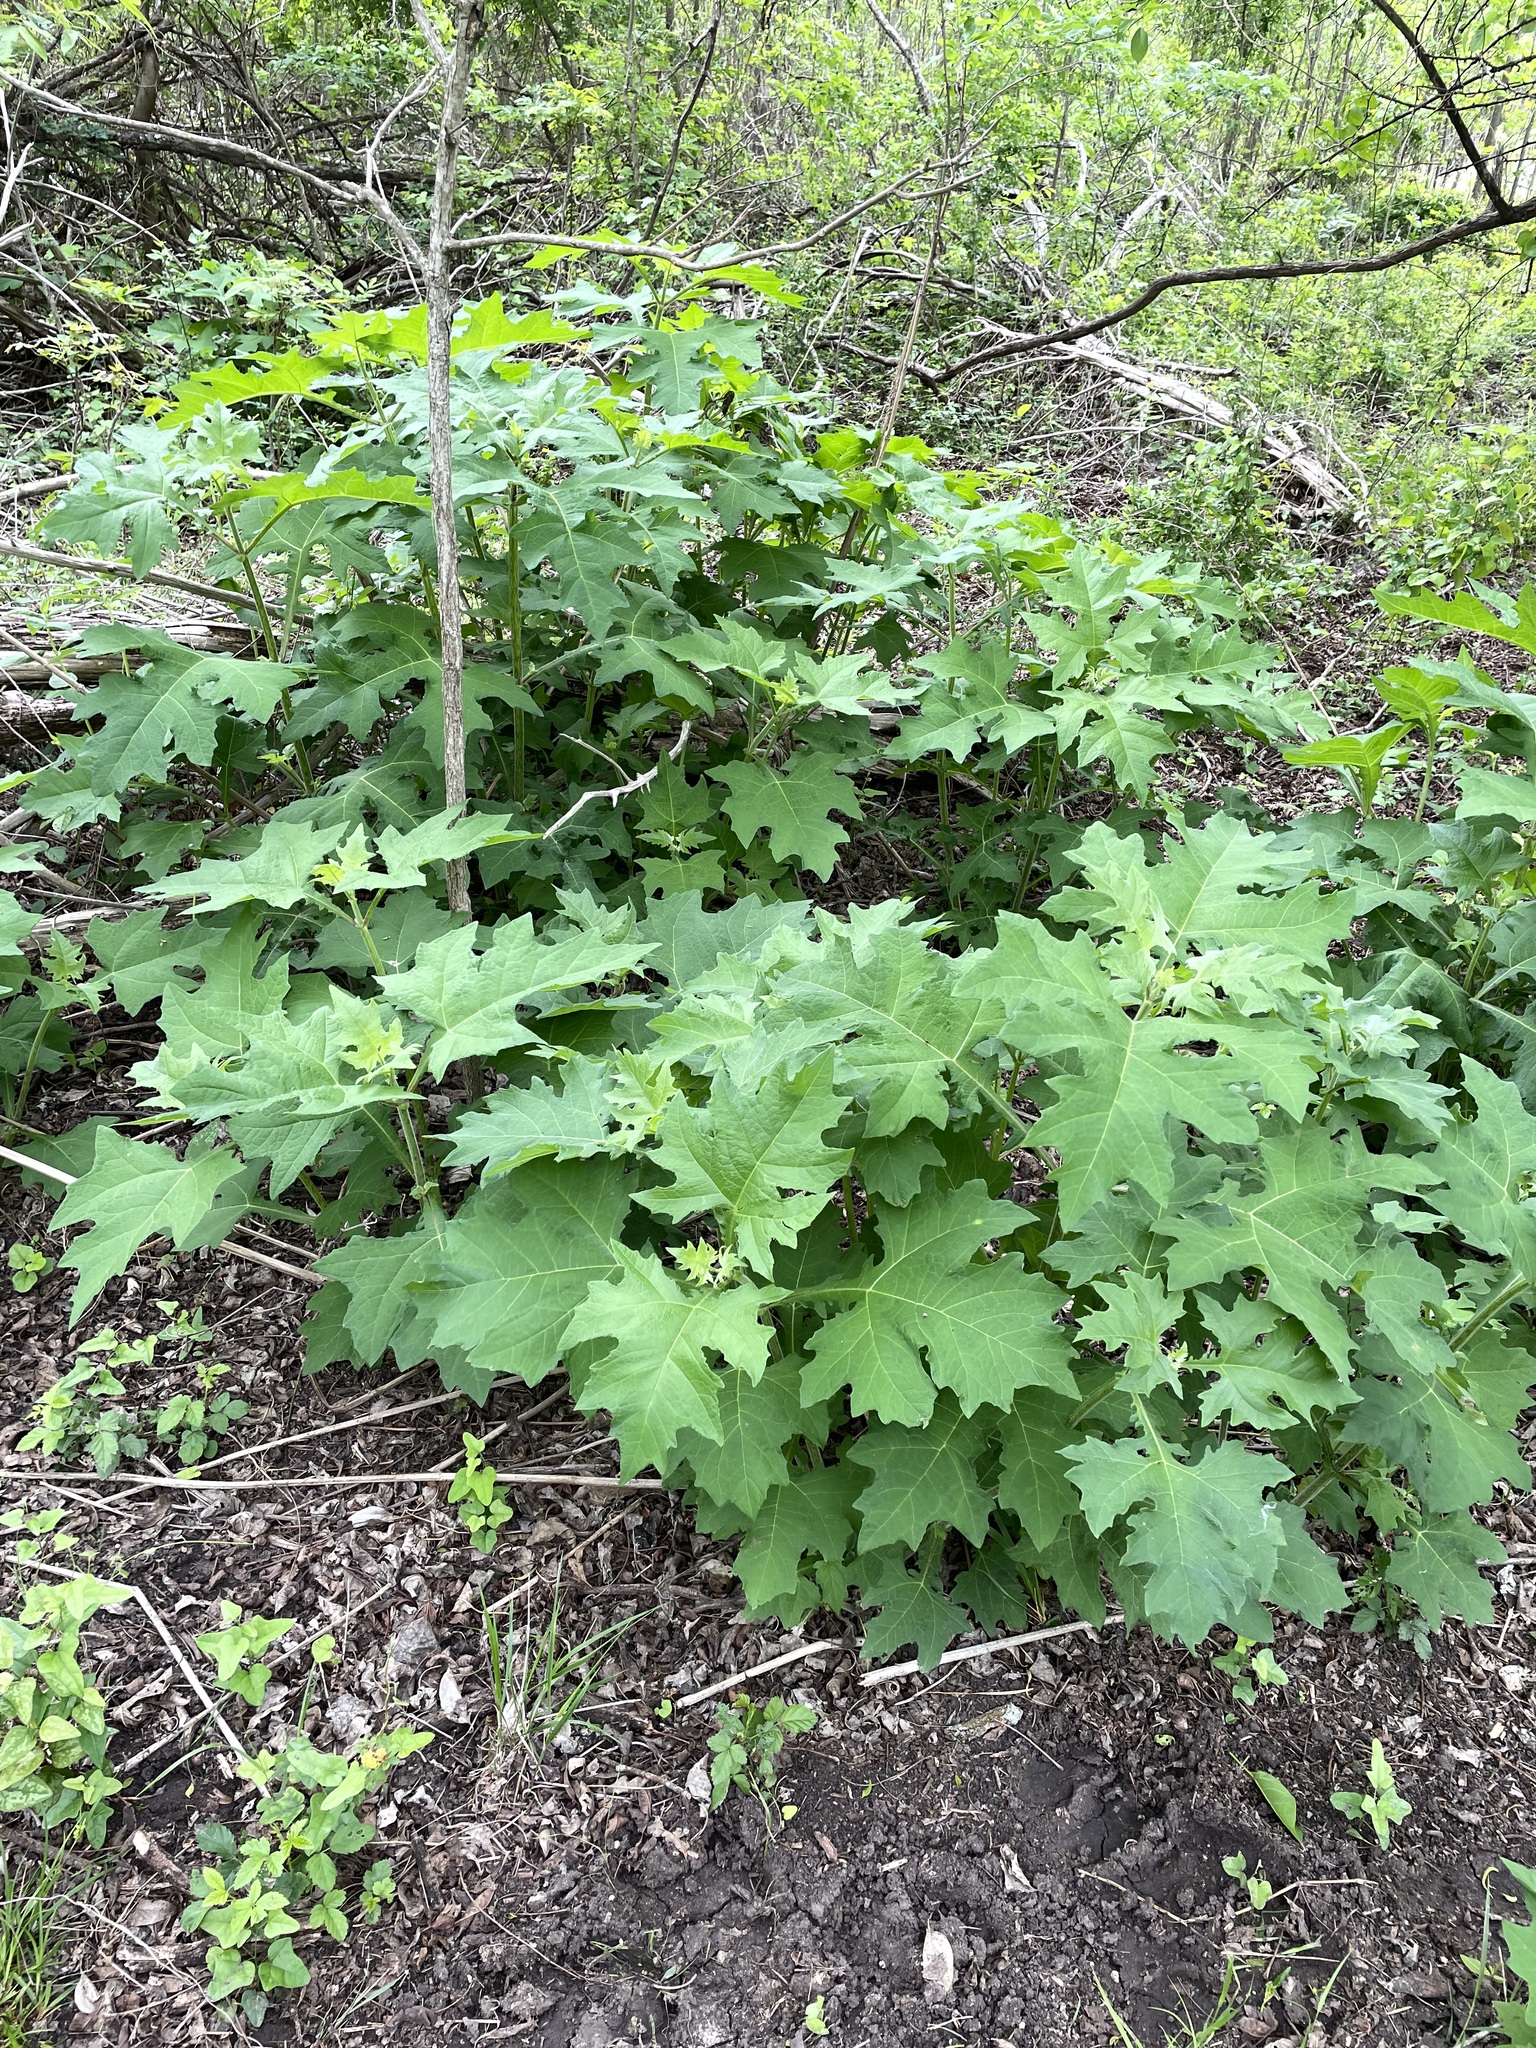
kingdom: Plantae
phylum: Tracheophyta
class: Magnoliopsida
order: Asterales
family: Asteraceae
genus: Smallanthus
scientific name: Smallanthus uvedalia
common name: Bear's-foot
